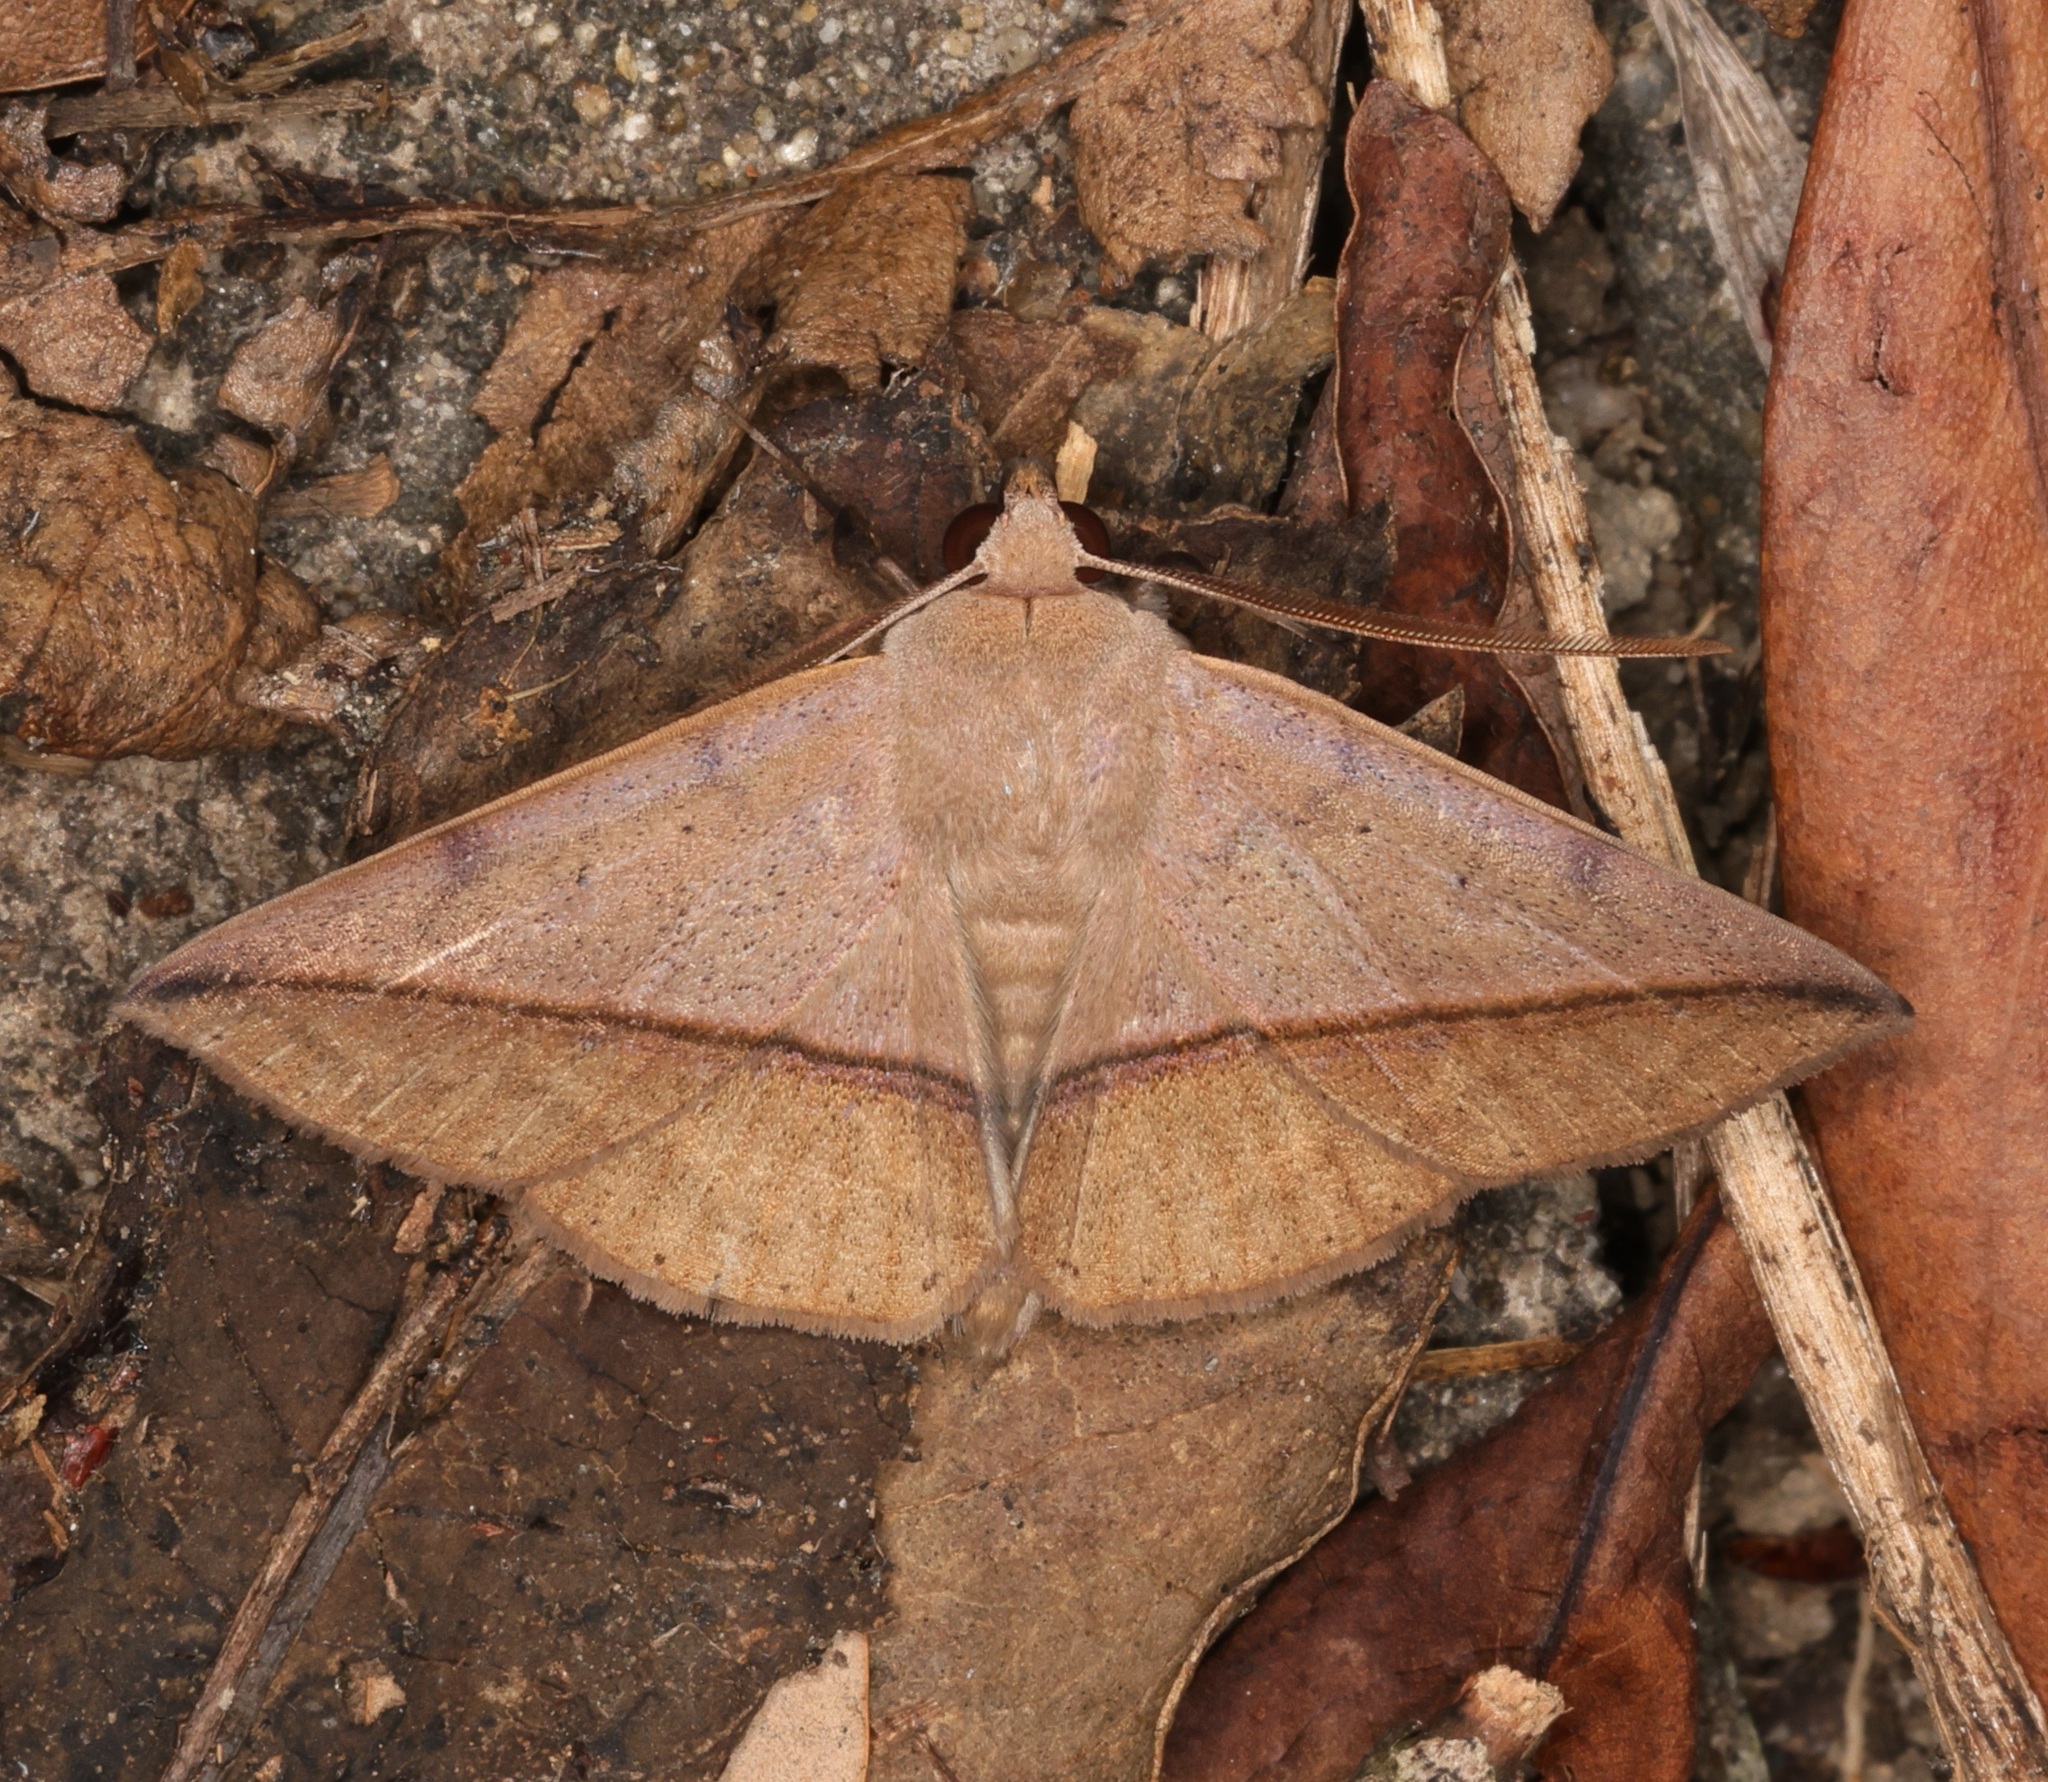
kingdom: Animalia
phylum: Arthropoda
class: Insecta
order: Lepidoptera
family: Erebidae
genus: Ugia
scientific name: Ugia purpurea
